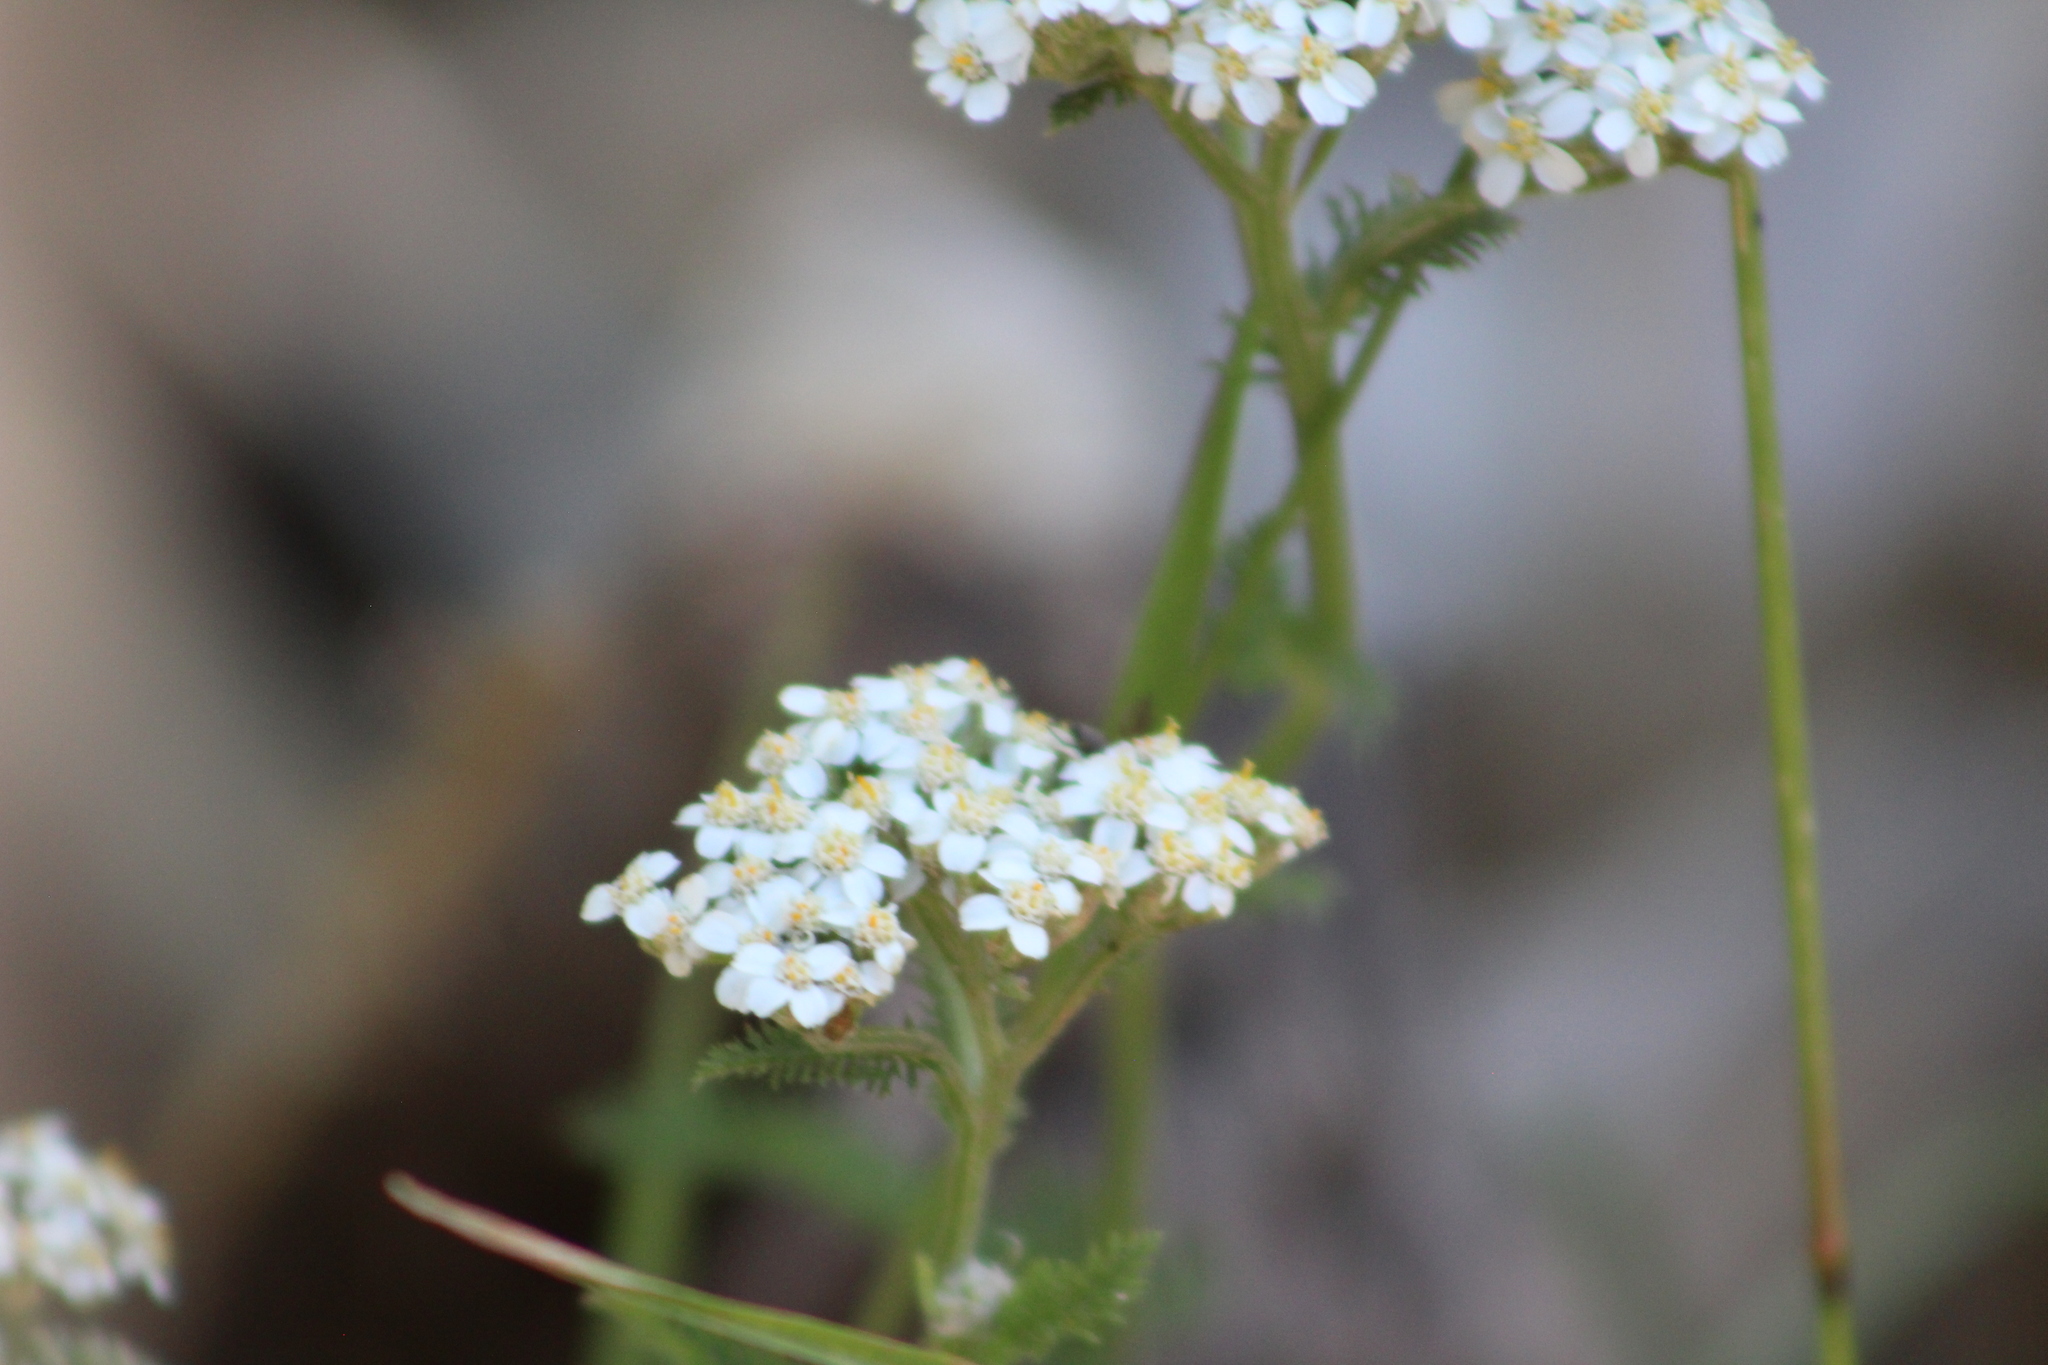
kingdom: Plantae
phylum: Tracheophyta
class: Magnoliopsida
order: Asterales
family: Asteraceae
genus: Achillea
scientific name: Achillea millefolium
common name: Yarrow
